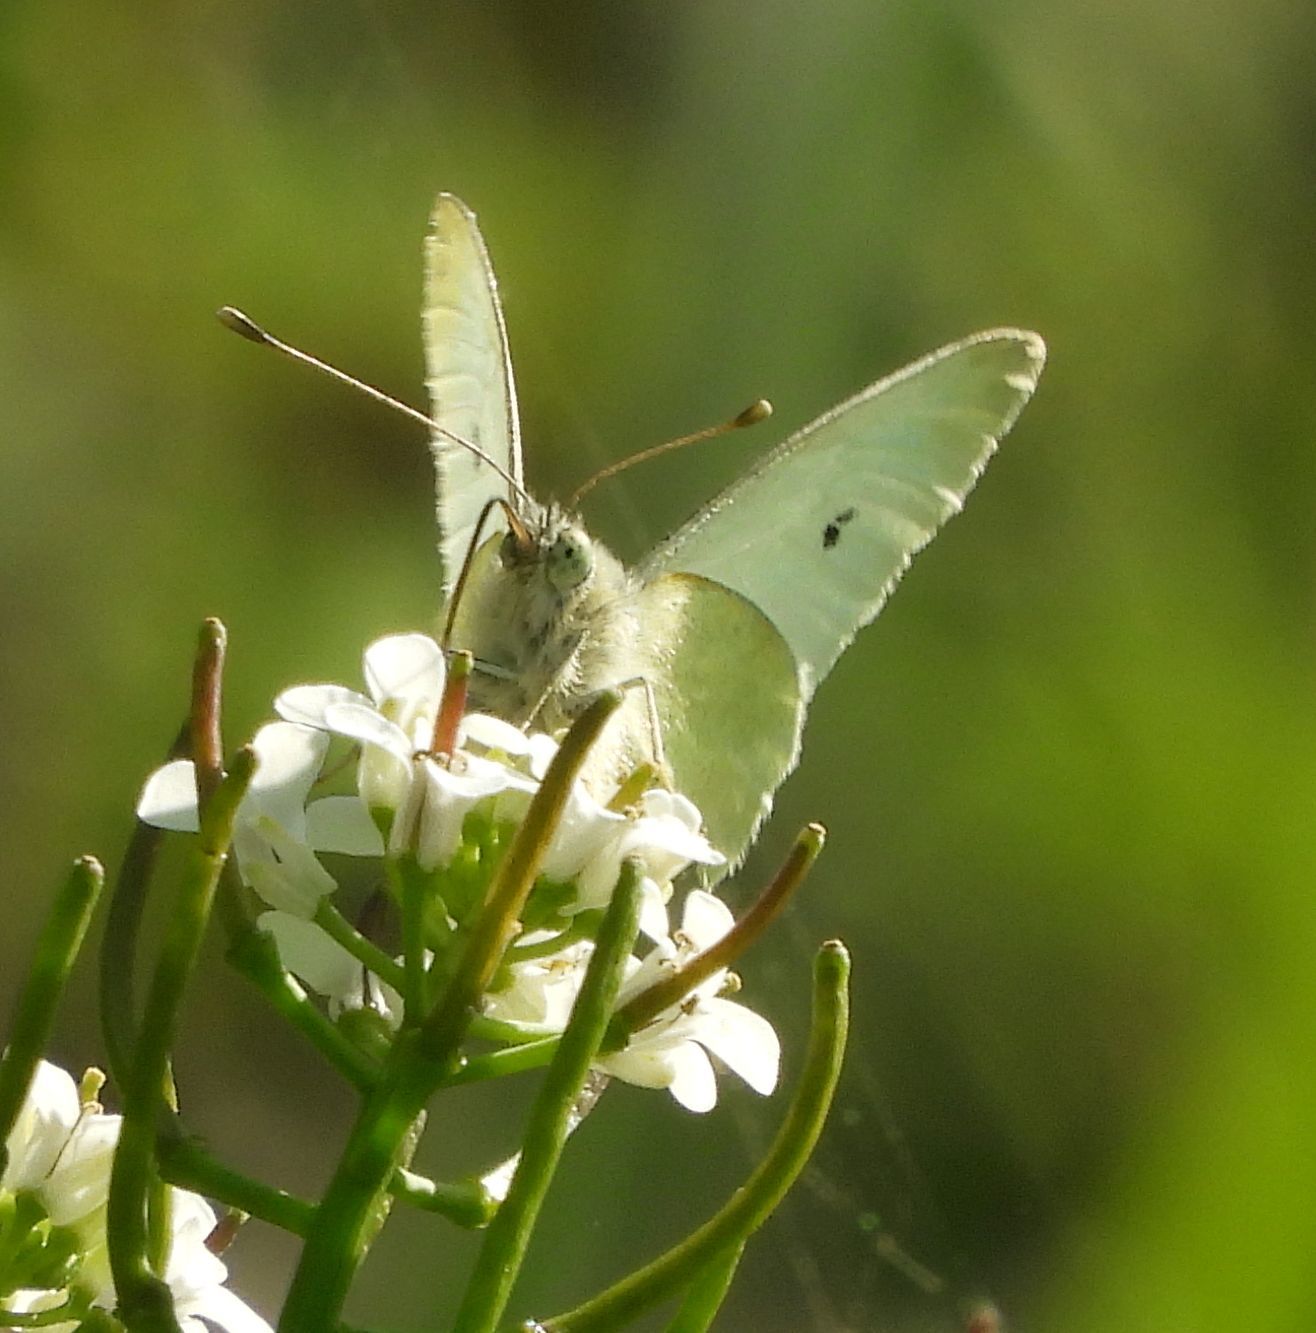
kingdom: Animalia
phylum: Arthropoda
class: Insecta
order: Lepidoptera
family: Pieridae
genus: Pieris
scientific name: Pieris rapae
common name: Small white
